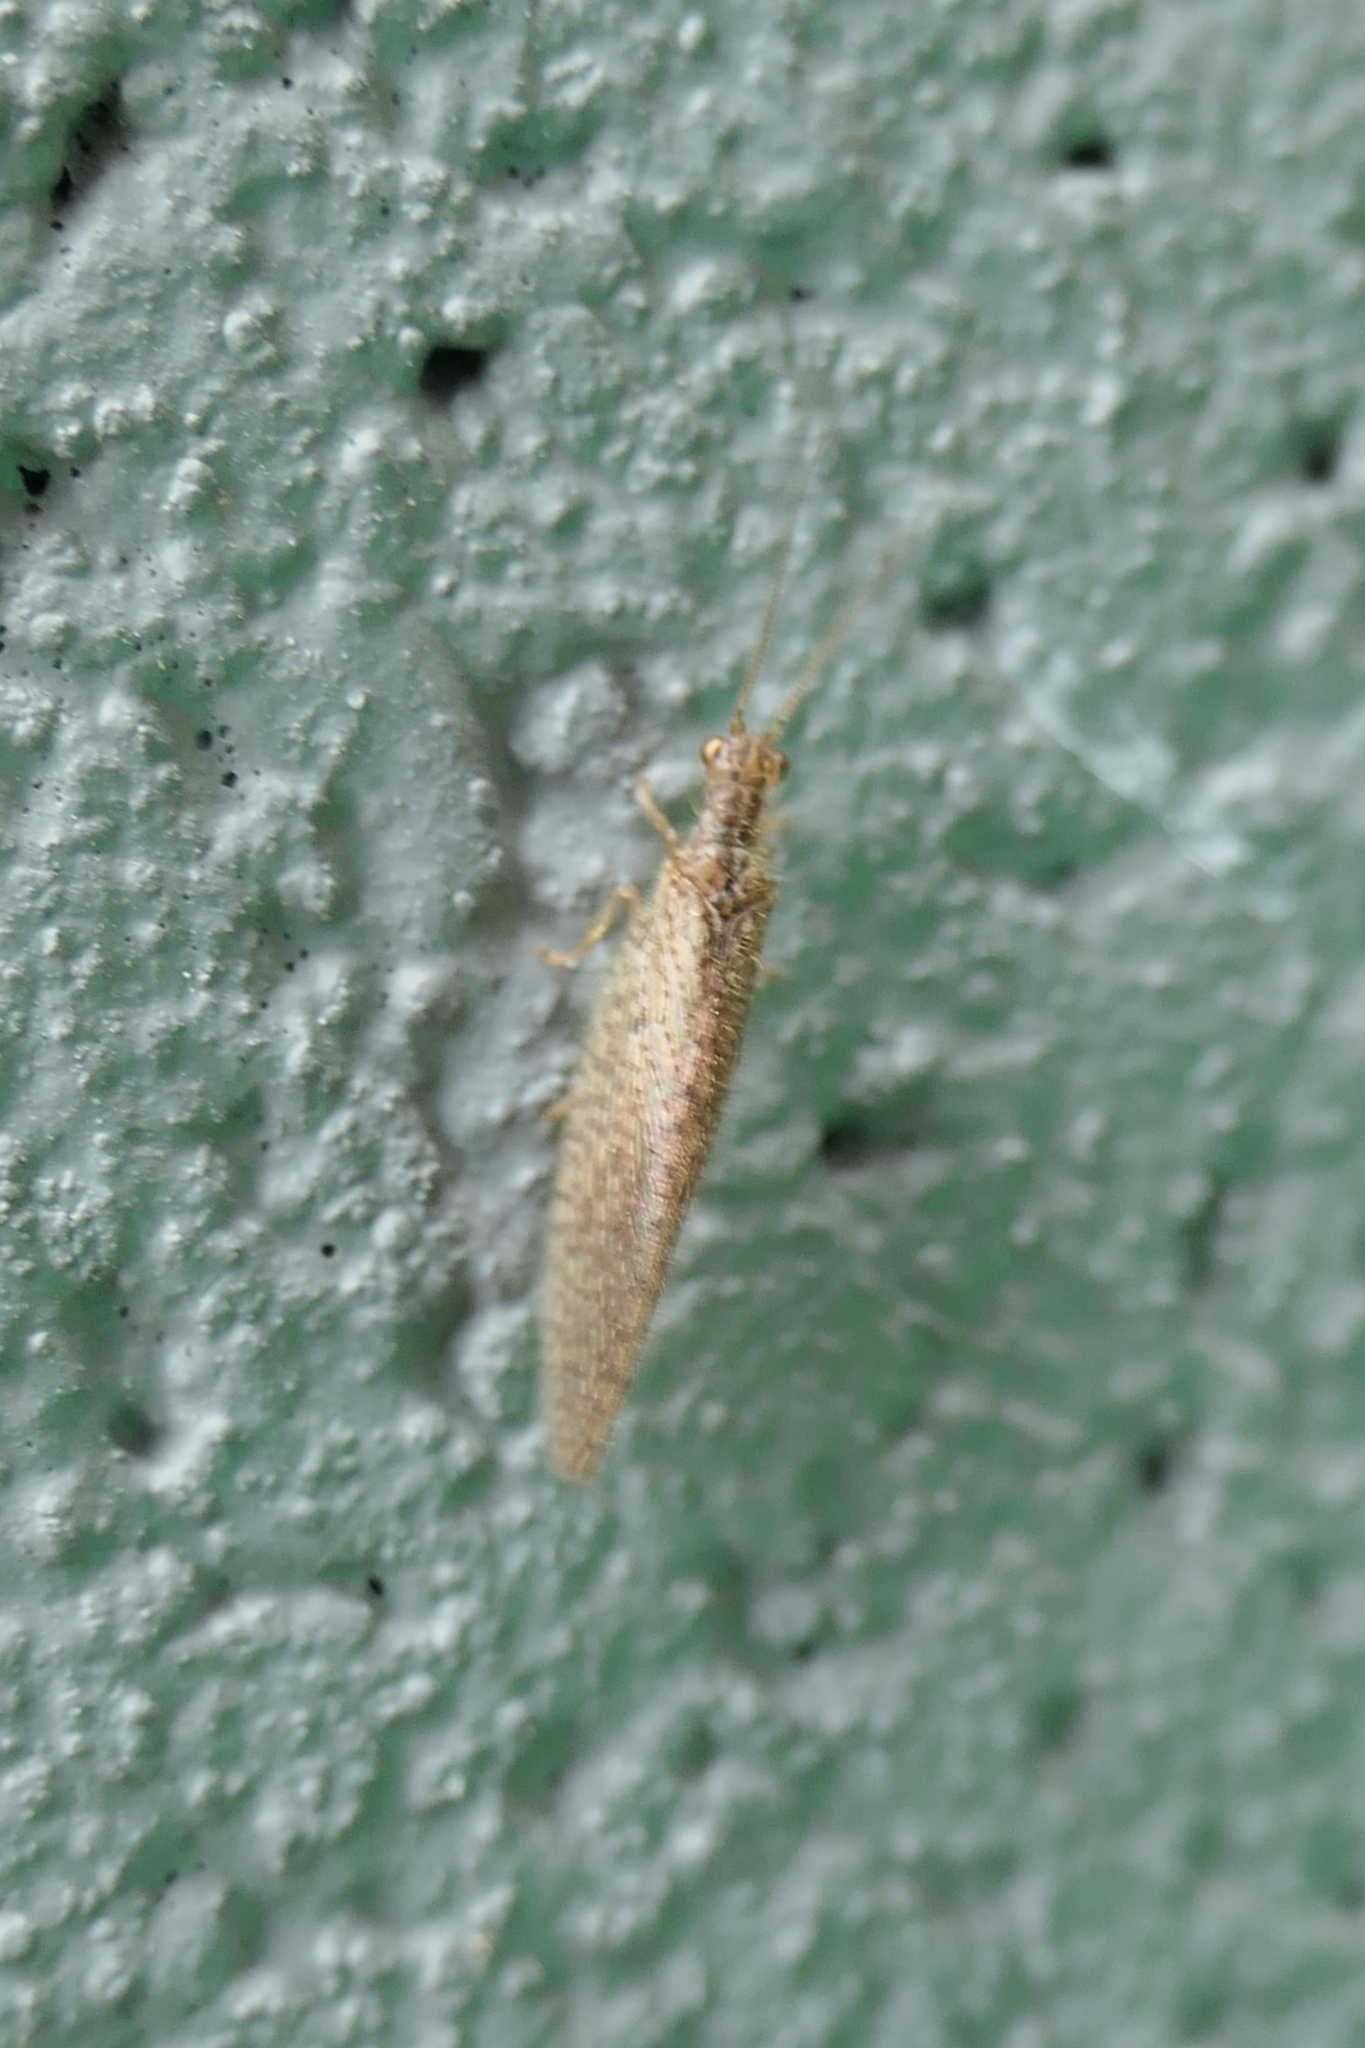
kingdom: Animalia
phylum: Arthropoda
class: Insecta
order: Neuroptera
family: Hemerobiidae
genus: Micromus
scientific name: Micromus tasmaniae
